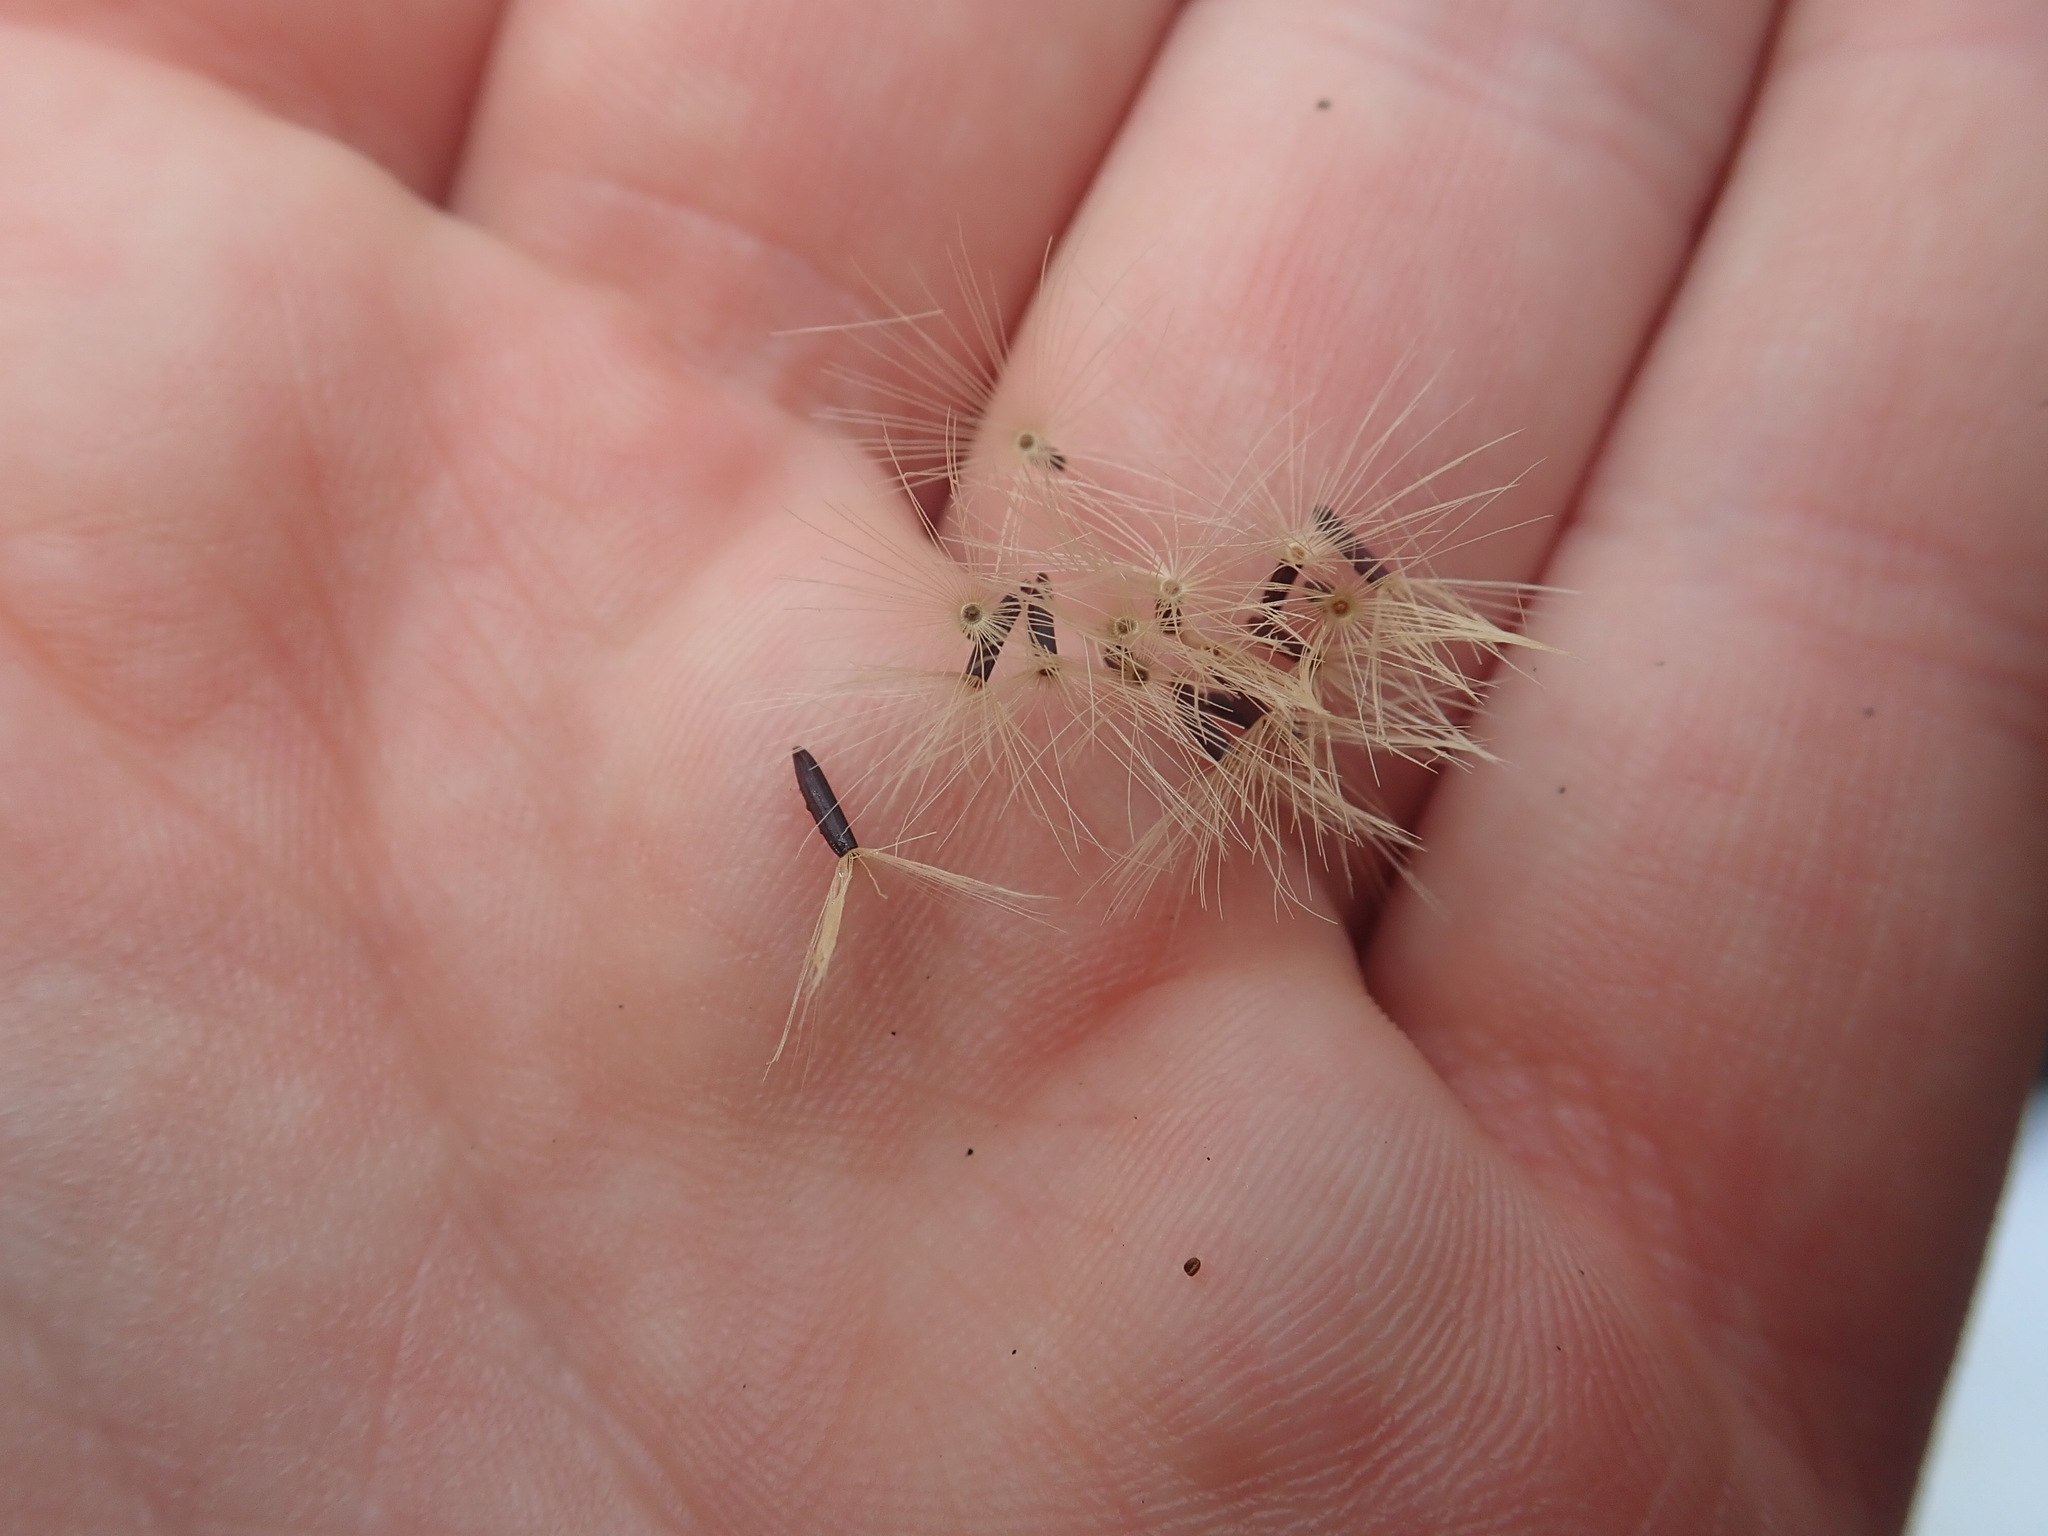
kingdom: Plantae
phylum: Tracheophyta
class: Magnoliopsida
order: Asterales
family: Asteraceae
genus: Hieracium
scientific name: Hieracium sabaudum
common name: New england hawkweed
